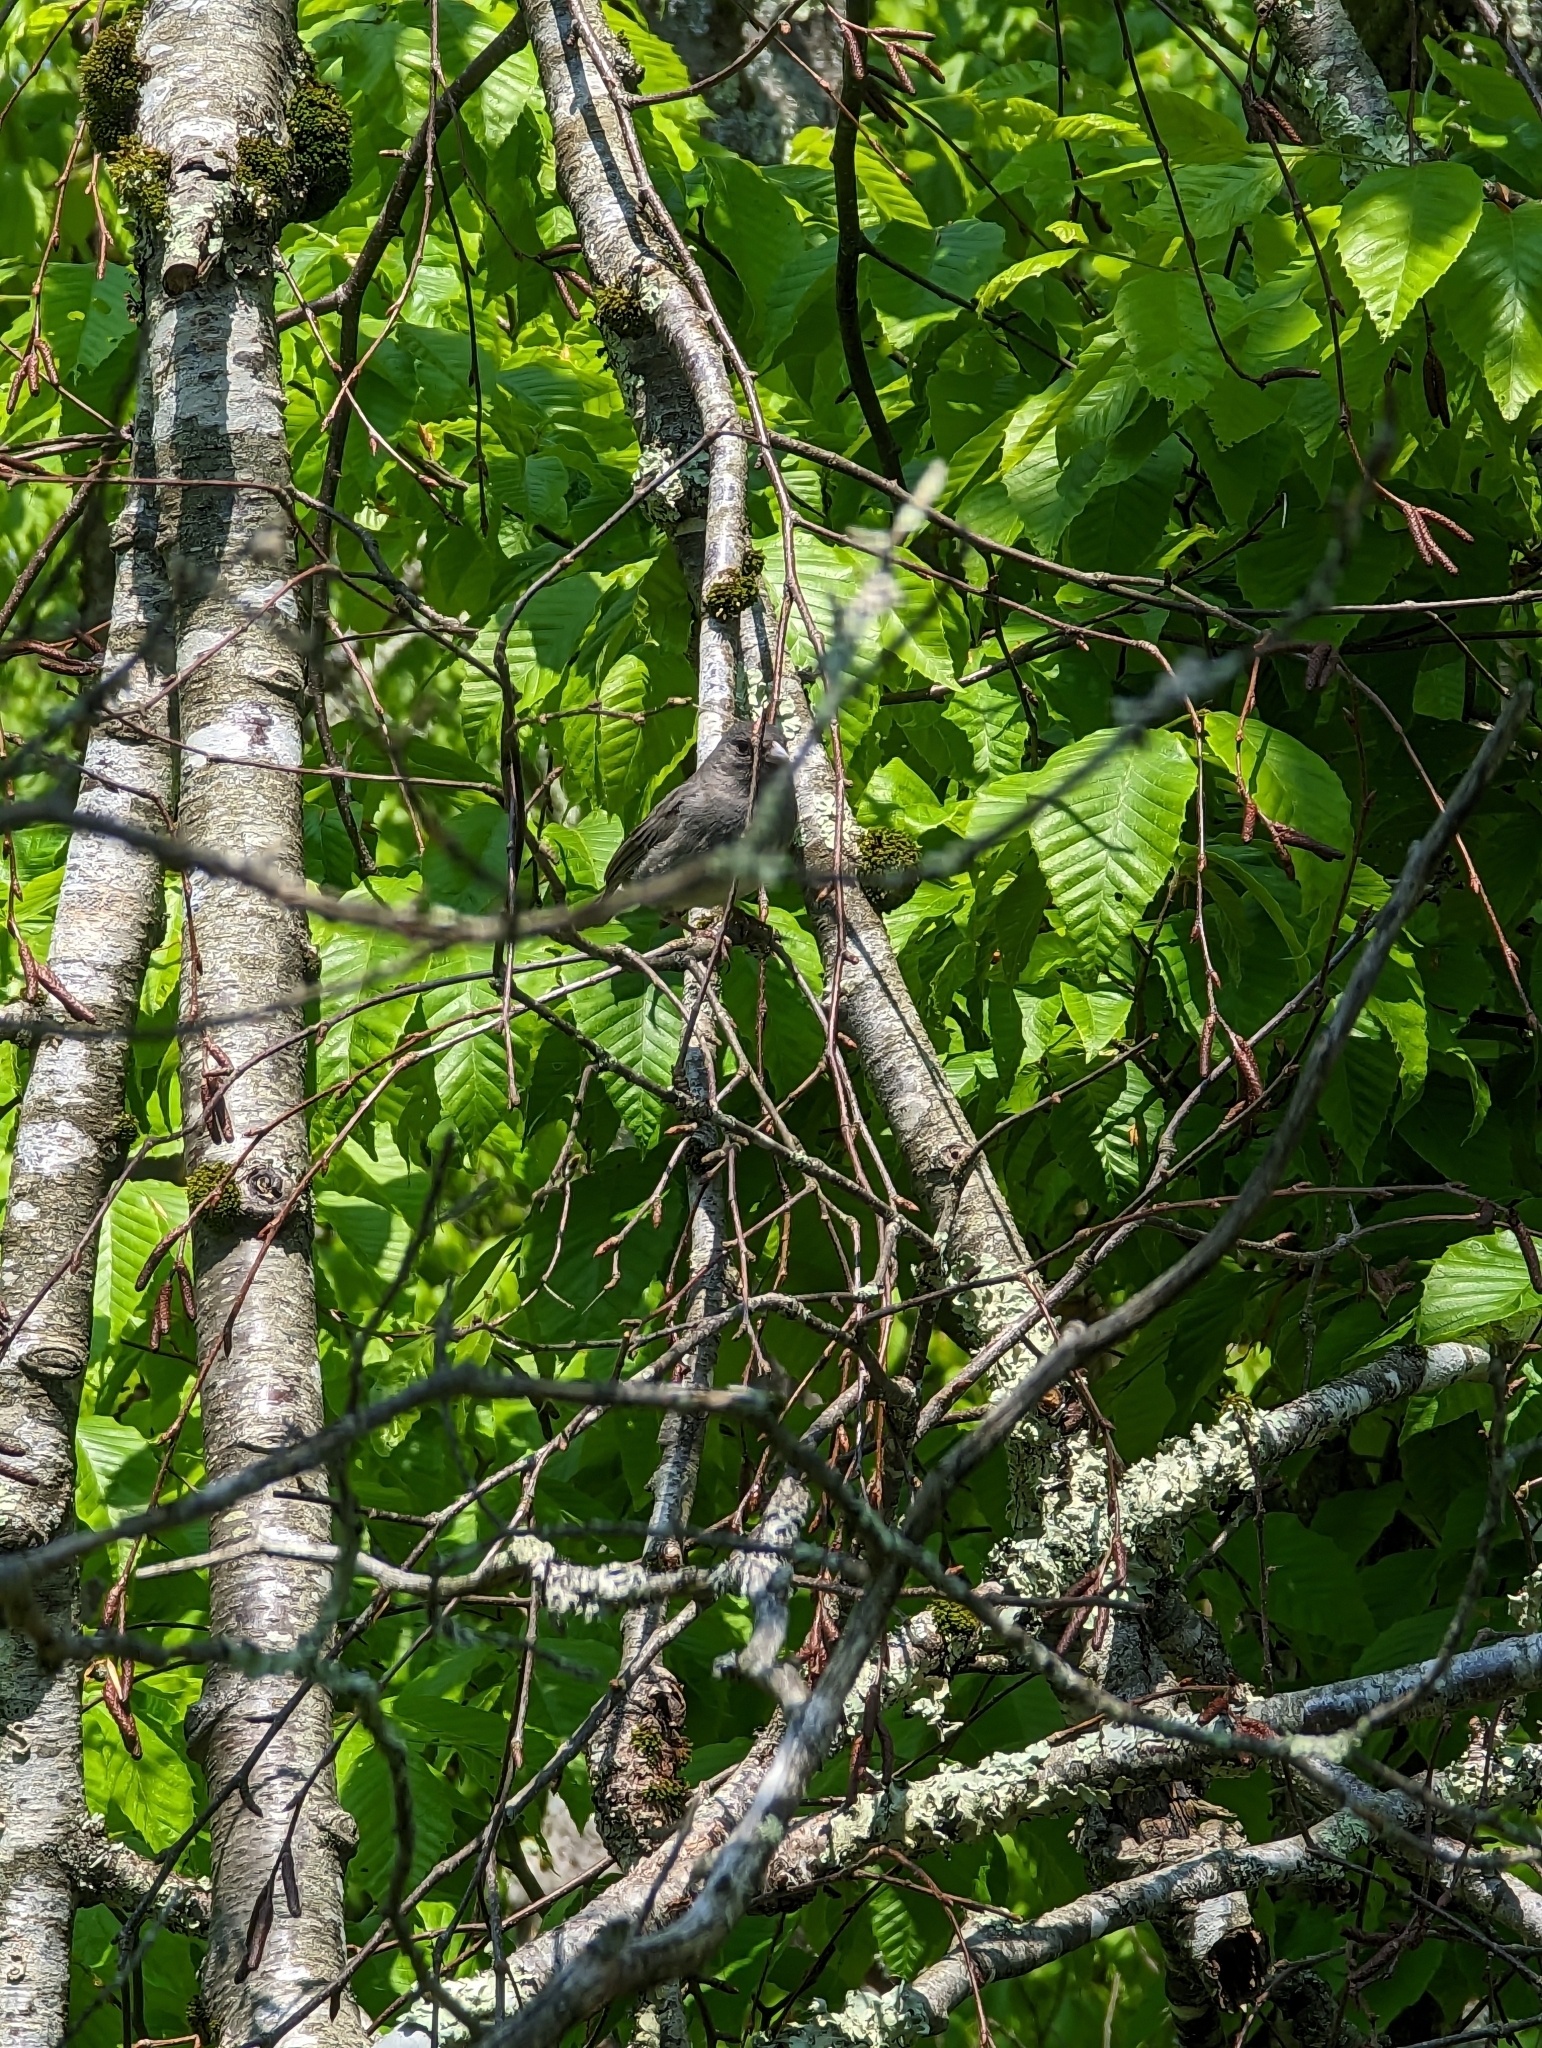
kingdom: Animalia
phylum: Chordata
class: Aves
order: Passeriformes
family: Passerellidae
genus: Junco
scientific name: Junco hyemalis
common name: Dark-eyed junco
